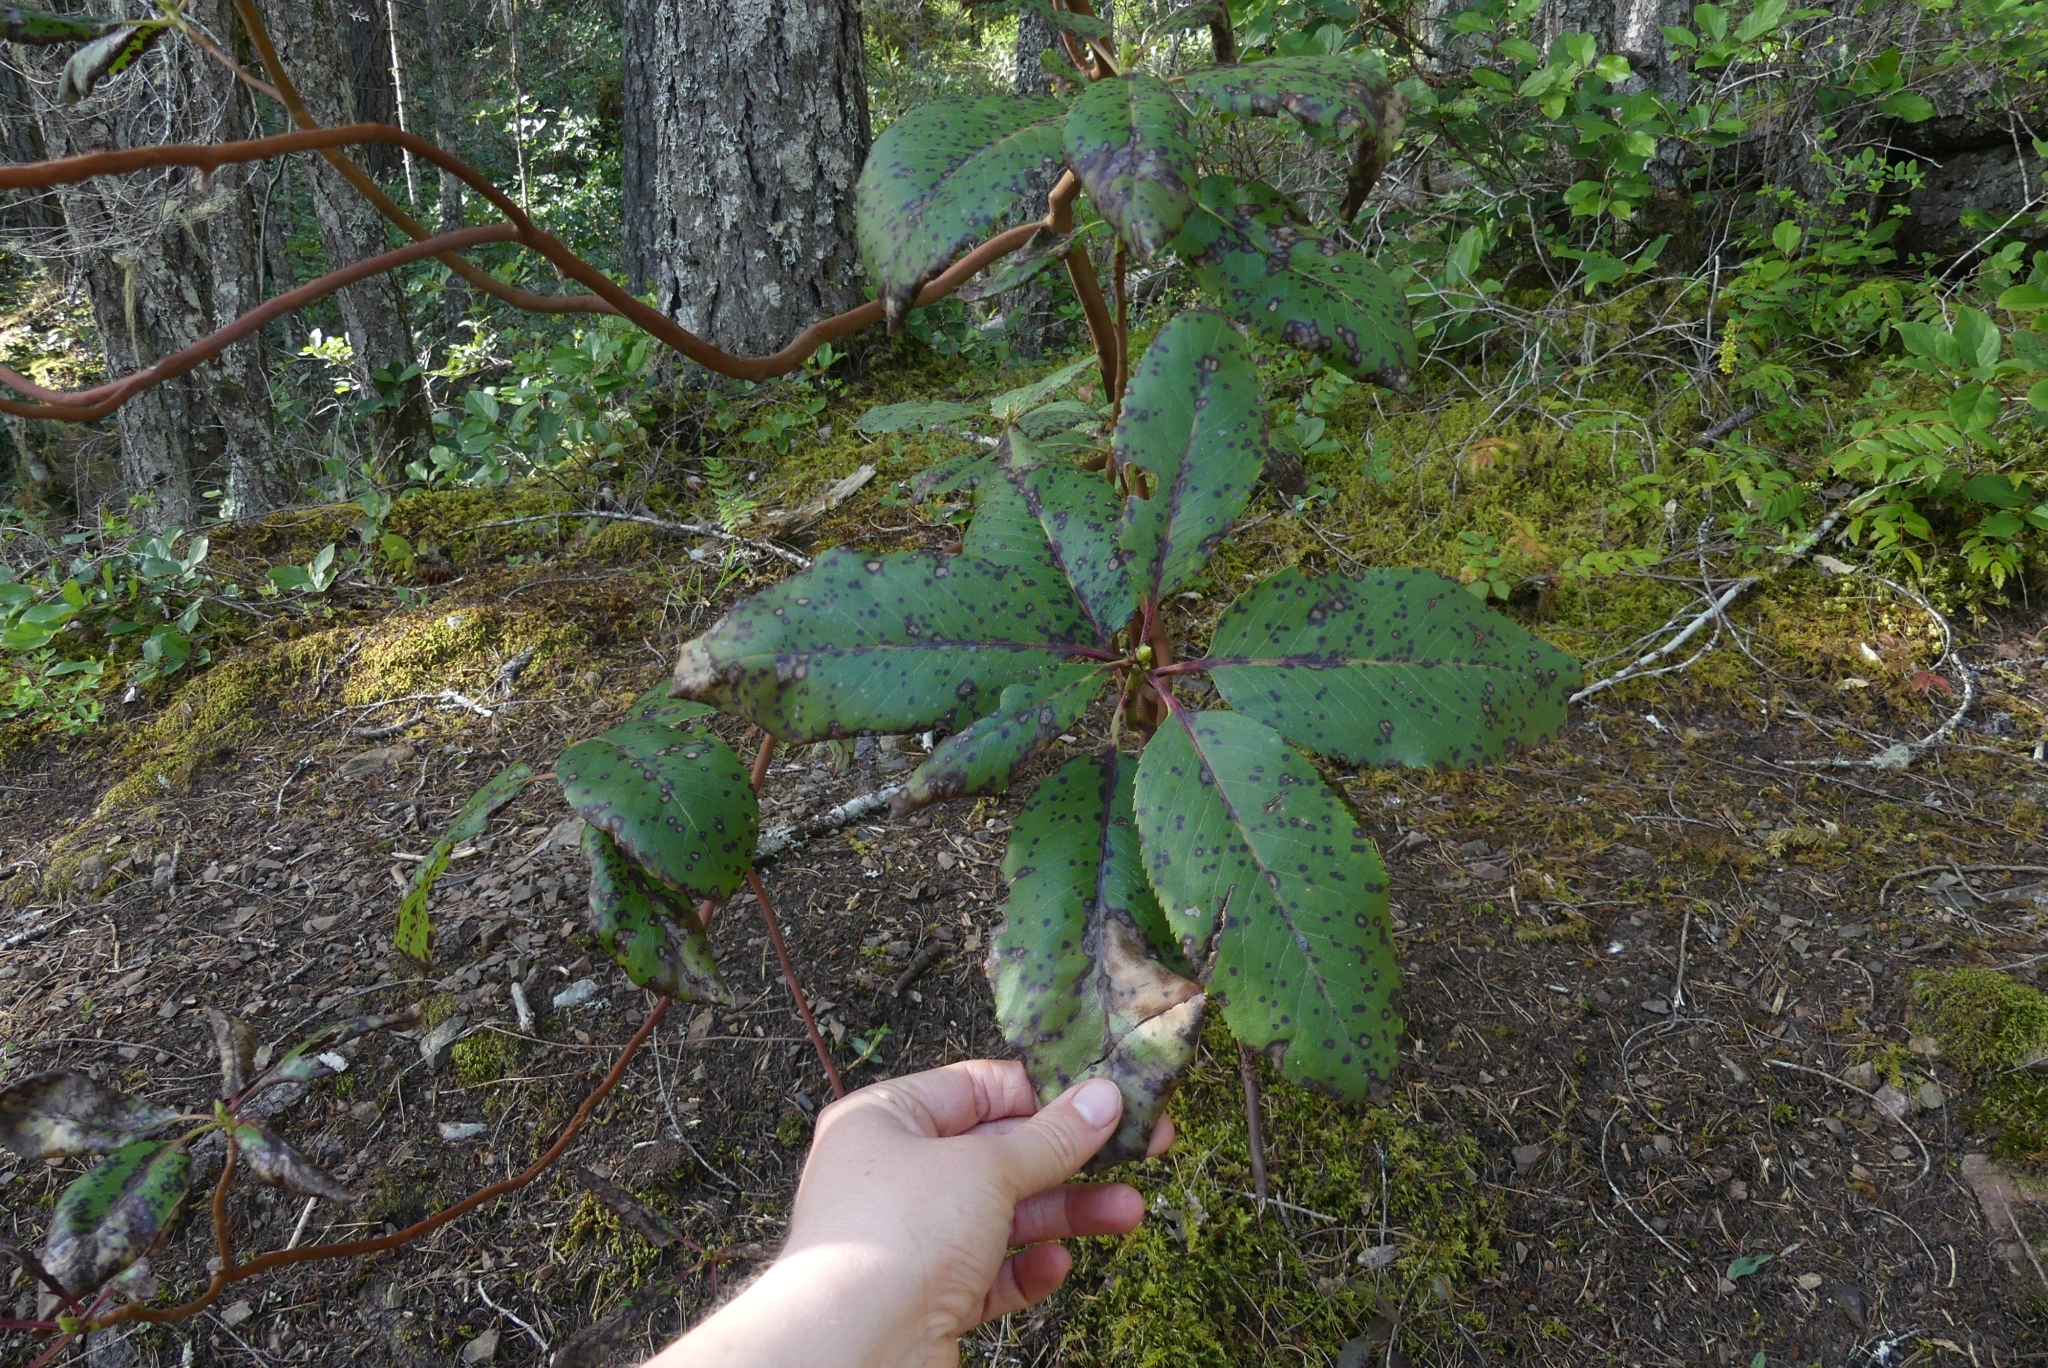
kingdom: Plantae
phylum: Tracheophyta
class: Magnoliopsida
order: Ericales
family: Ericaceae
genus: Arbutus
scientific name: Arbutus menziesii
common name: Pacific madrone
